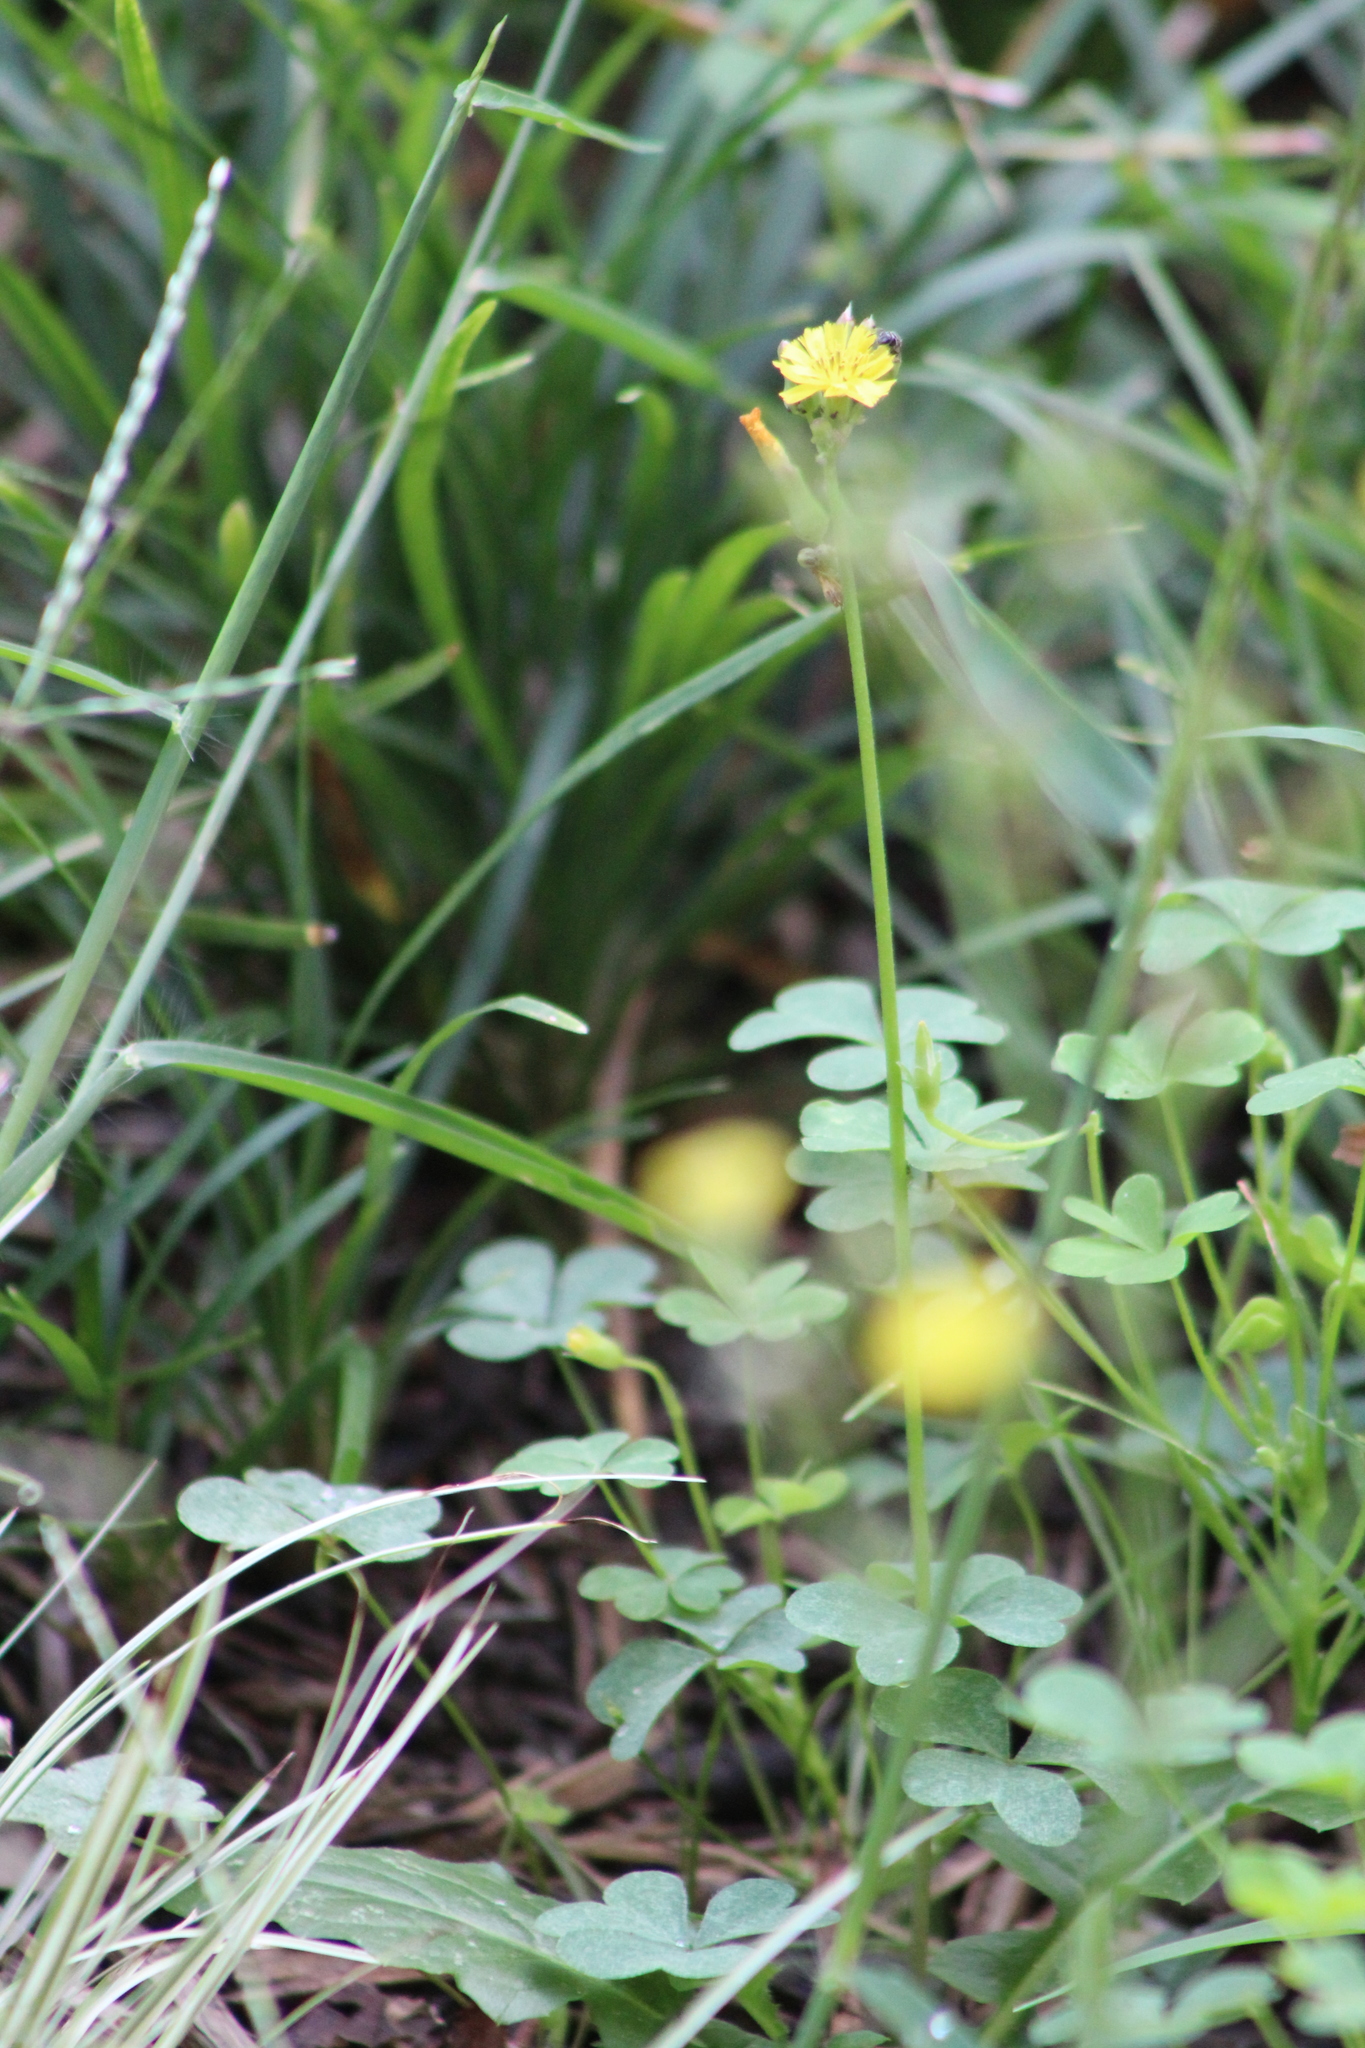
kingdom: Plantae
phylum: Tracheophyta
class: Magnoliopsida
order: Asterales
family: Asteraceae
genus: Youngia
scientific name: Youngia japonica
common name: Oriental false hawksbeard
